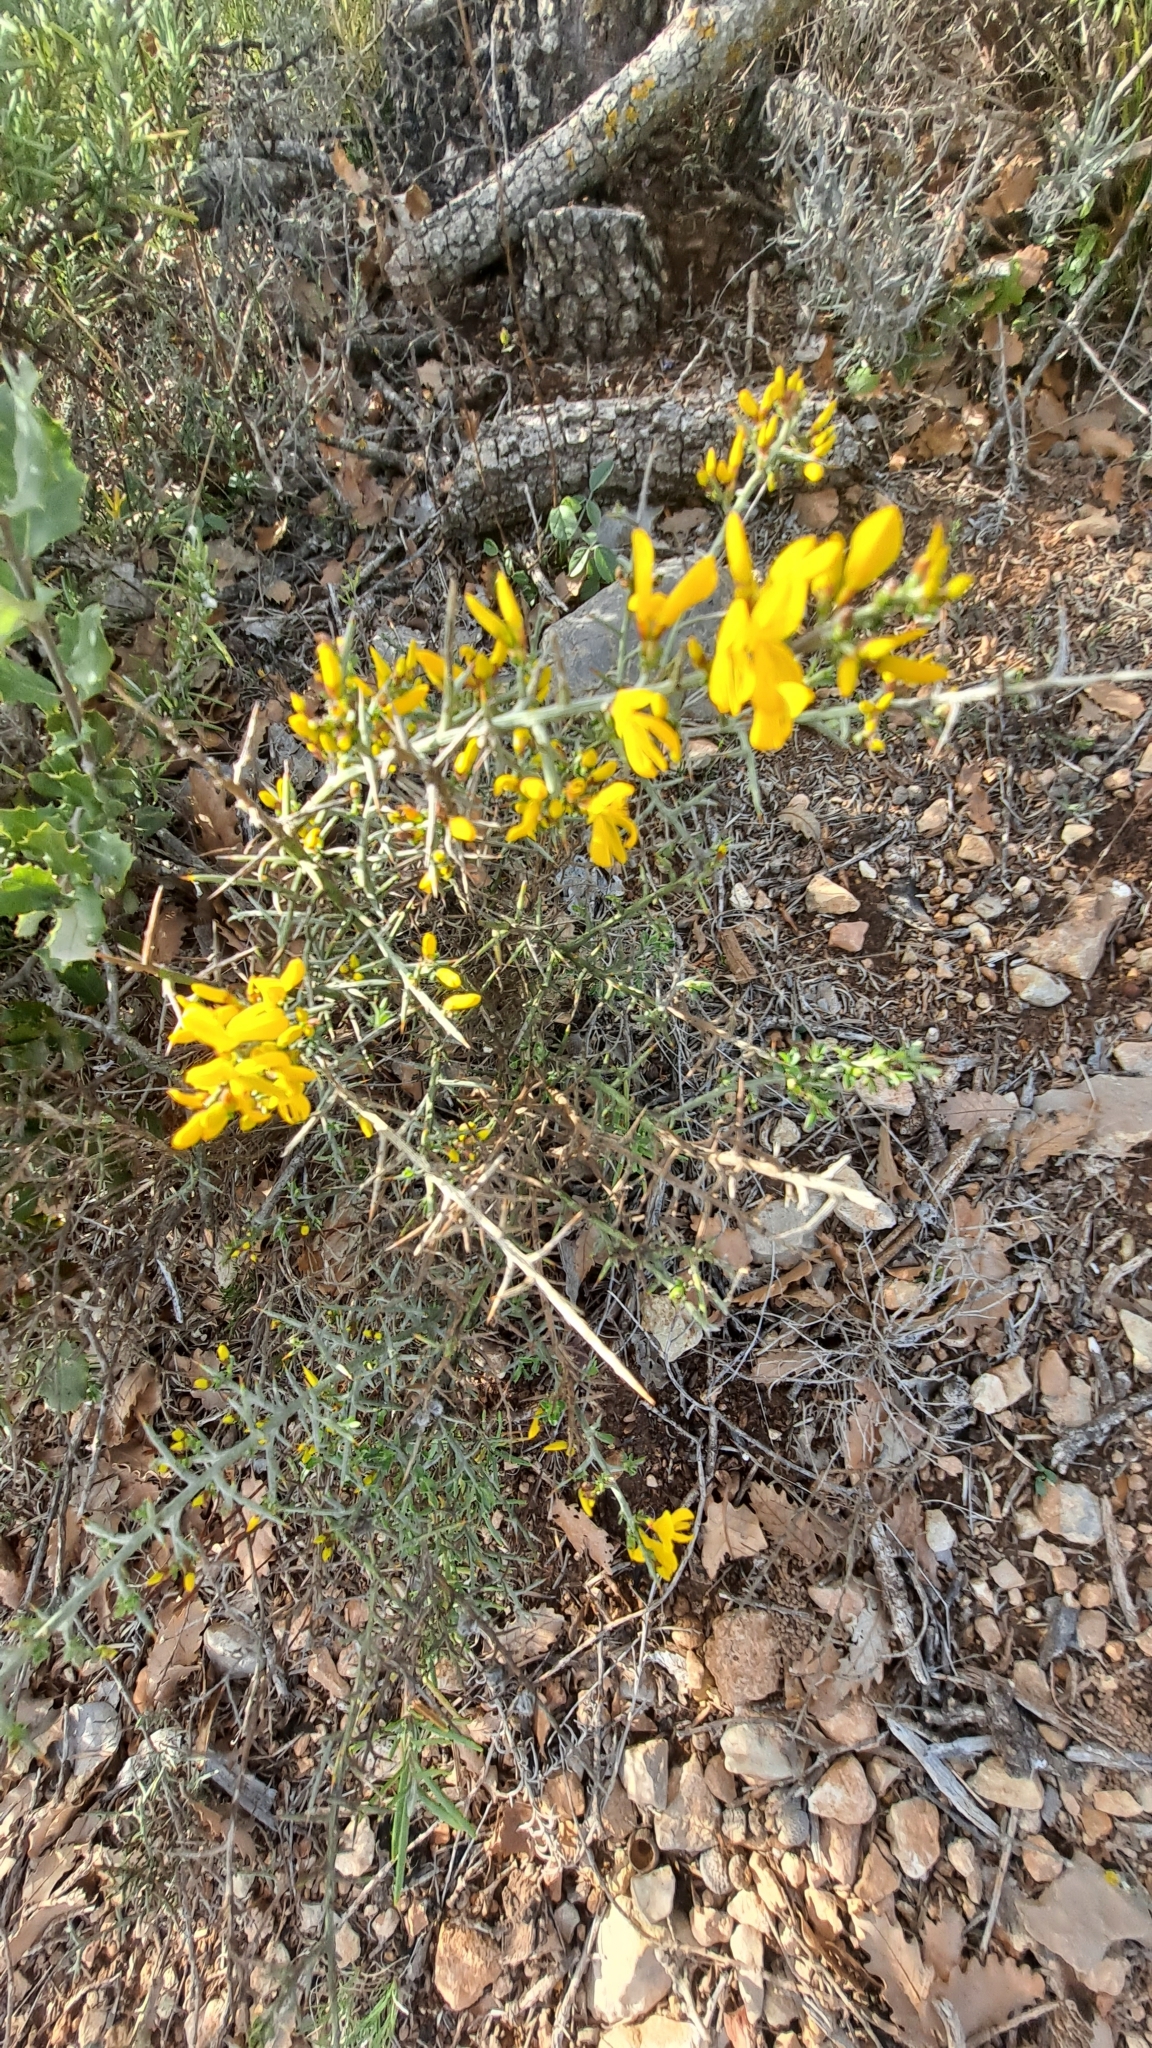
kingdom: Plantae
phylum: Tracheophyta
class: Magnoliopsida
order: Fabales
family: Fabaceae
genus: Genista
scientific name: Genista scorpius
